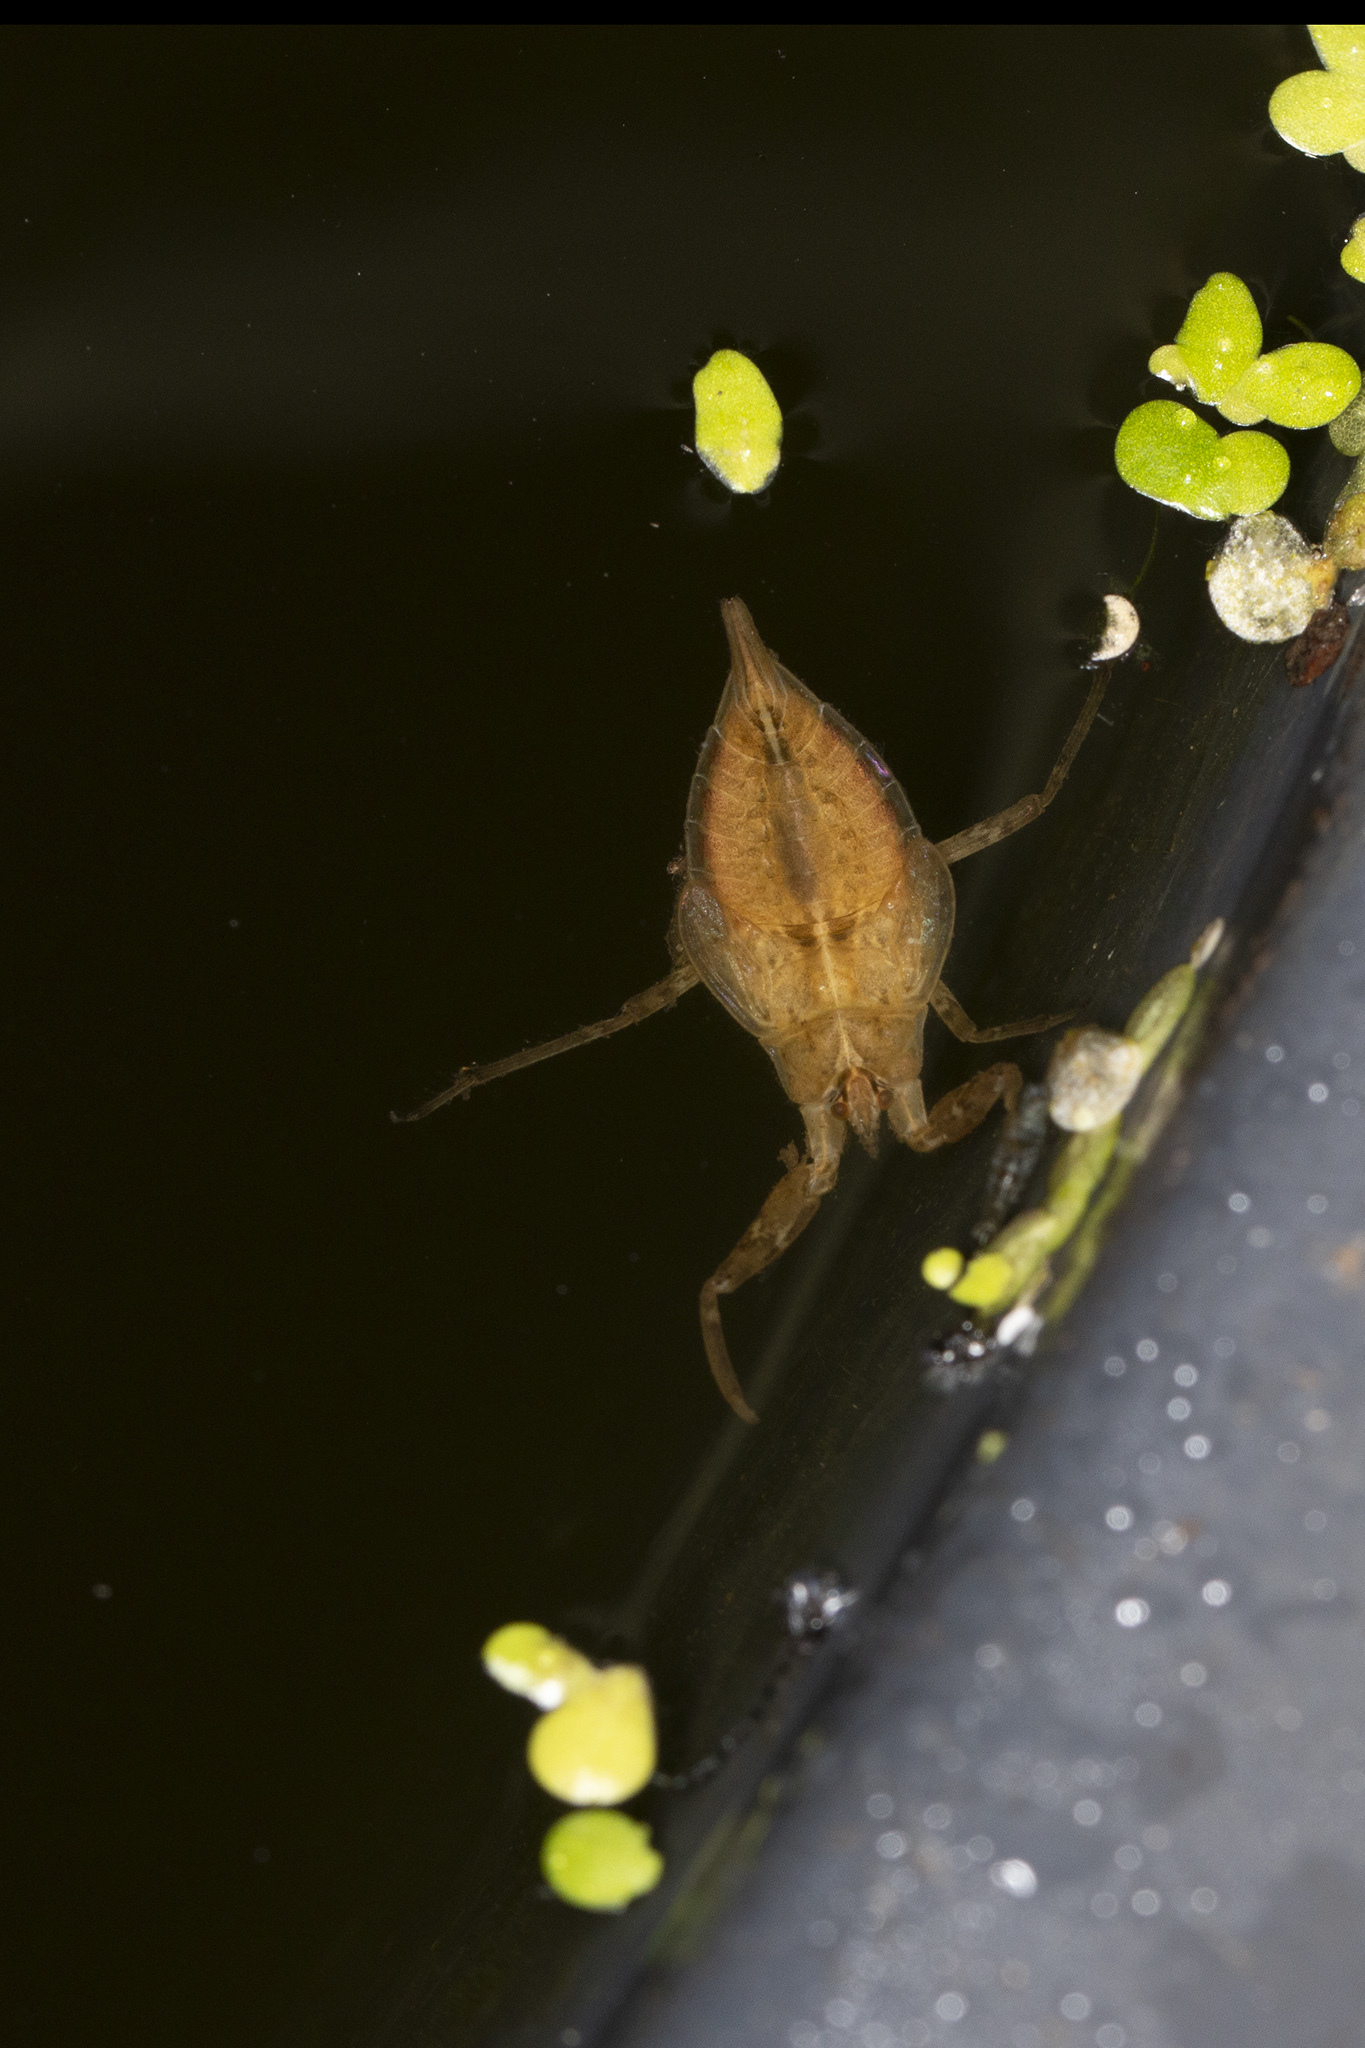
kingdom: Animalia
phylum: Arthropoda
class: Insecta
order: Hemiptera
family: Nepidae
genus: Nepa
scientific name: Nepa cinerea
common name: Water scorpion
